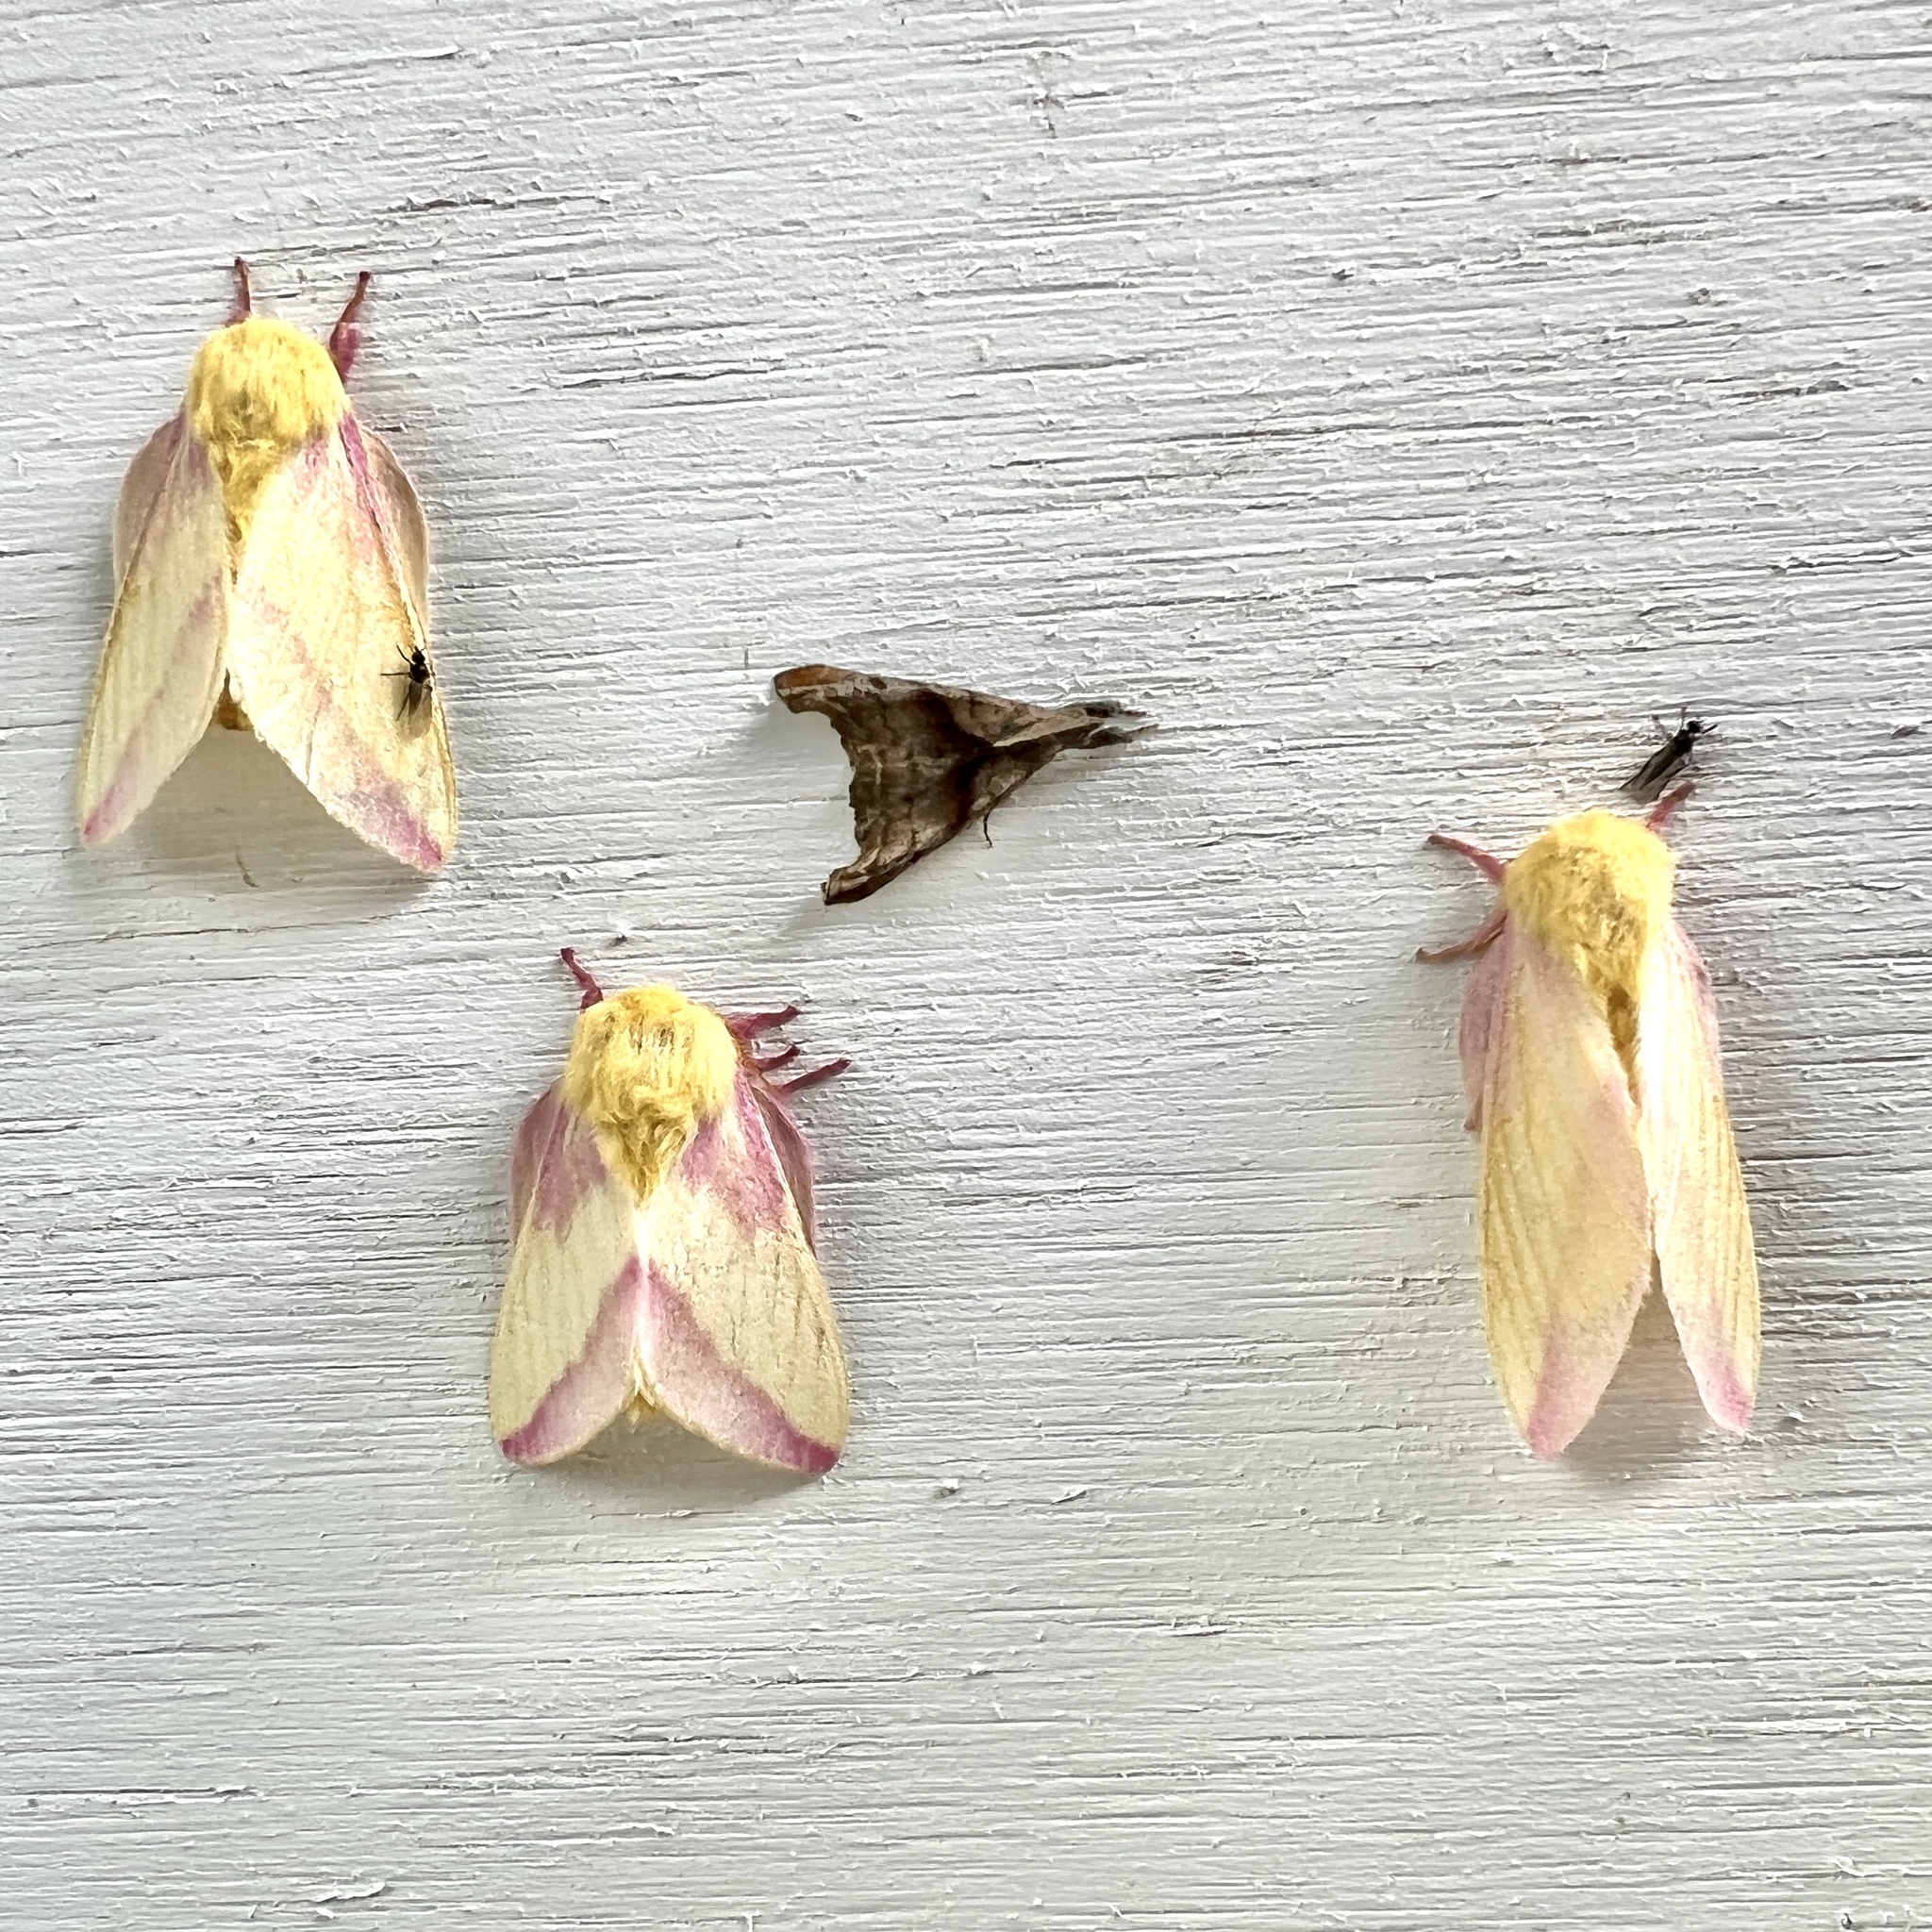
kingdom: Animalia
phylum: Arthropoda
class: Insecta
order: Lepidoptera
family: Saturniidae
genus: Dryocampa
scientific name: Dryocampa rubicunda
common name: Rosy maple moth
